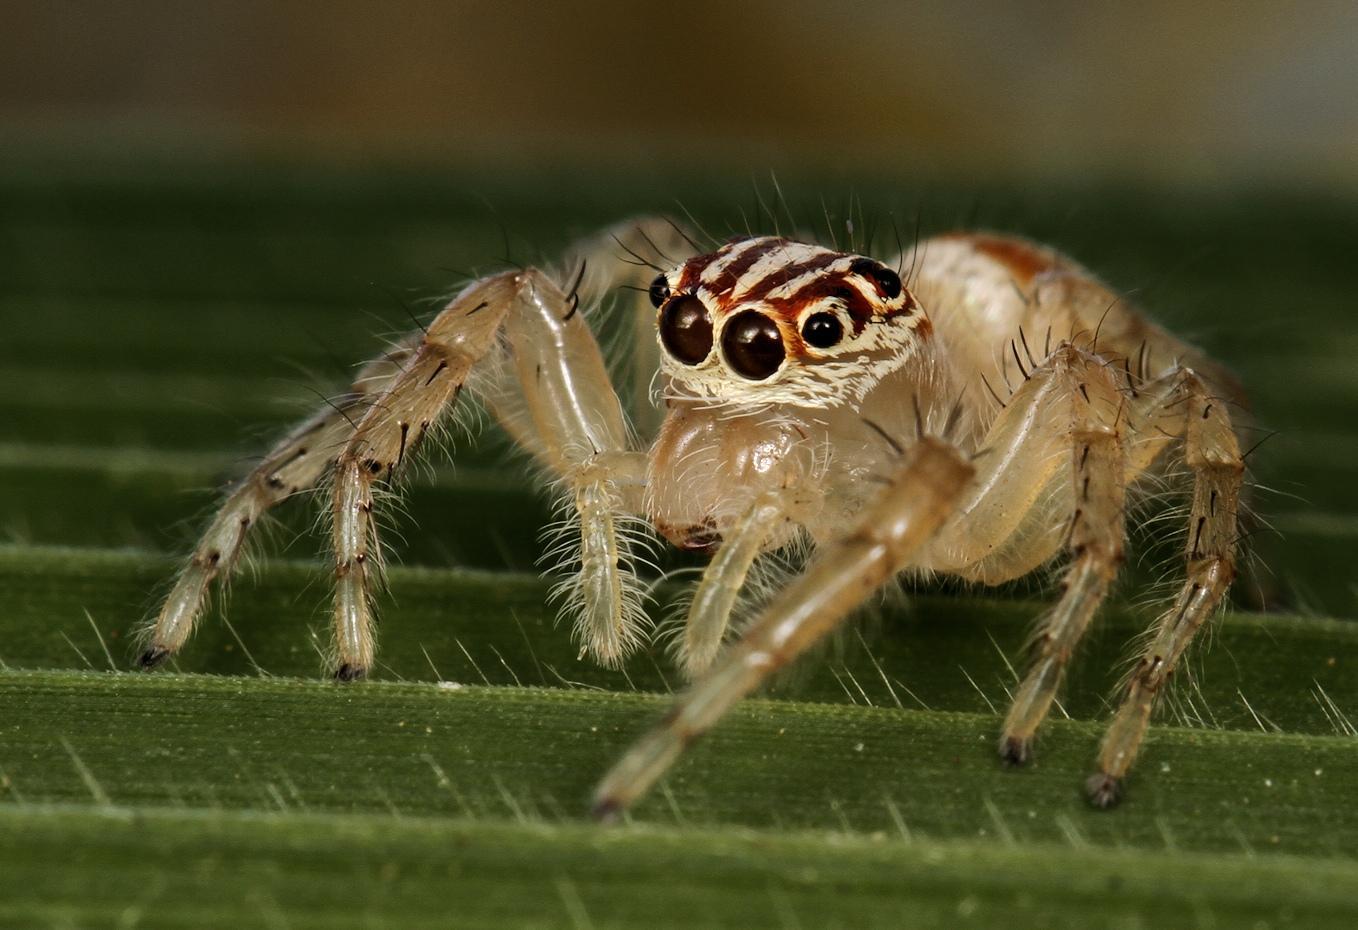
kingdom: Animalia
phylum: Arthropoda
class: Arachnida
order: Araneae
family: Salticidae
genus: Brancus
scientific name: Brancus mustelus
